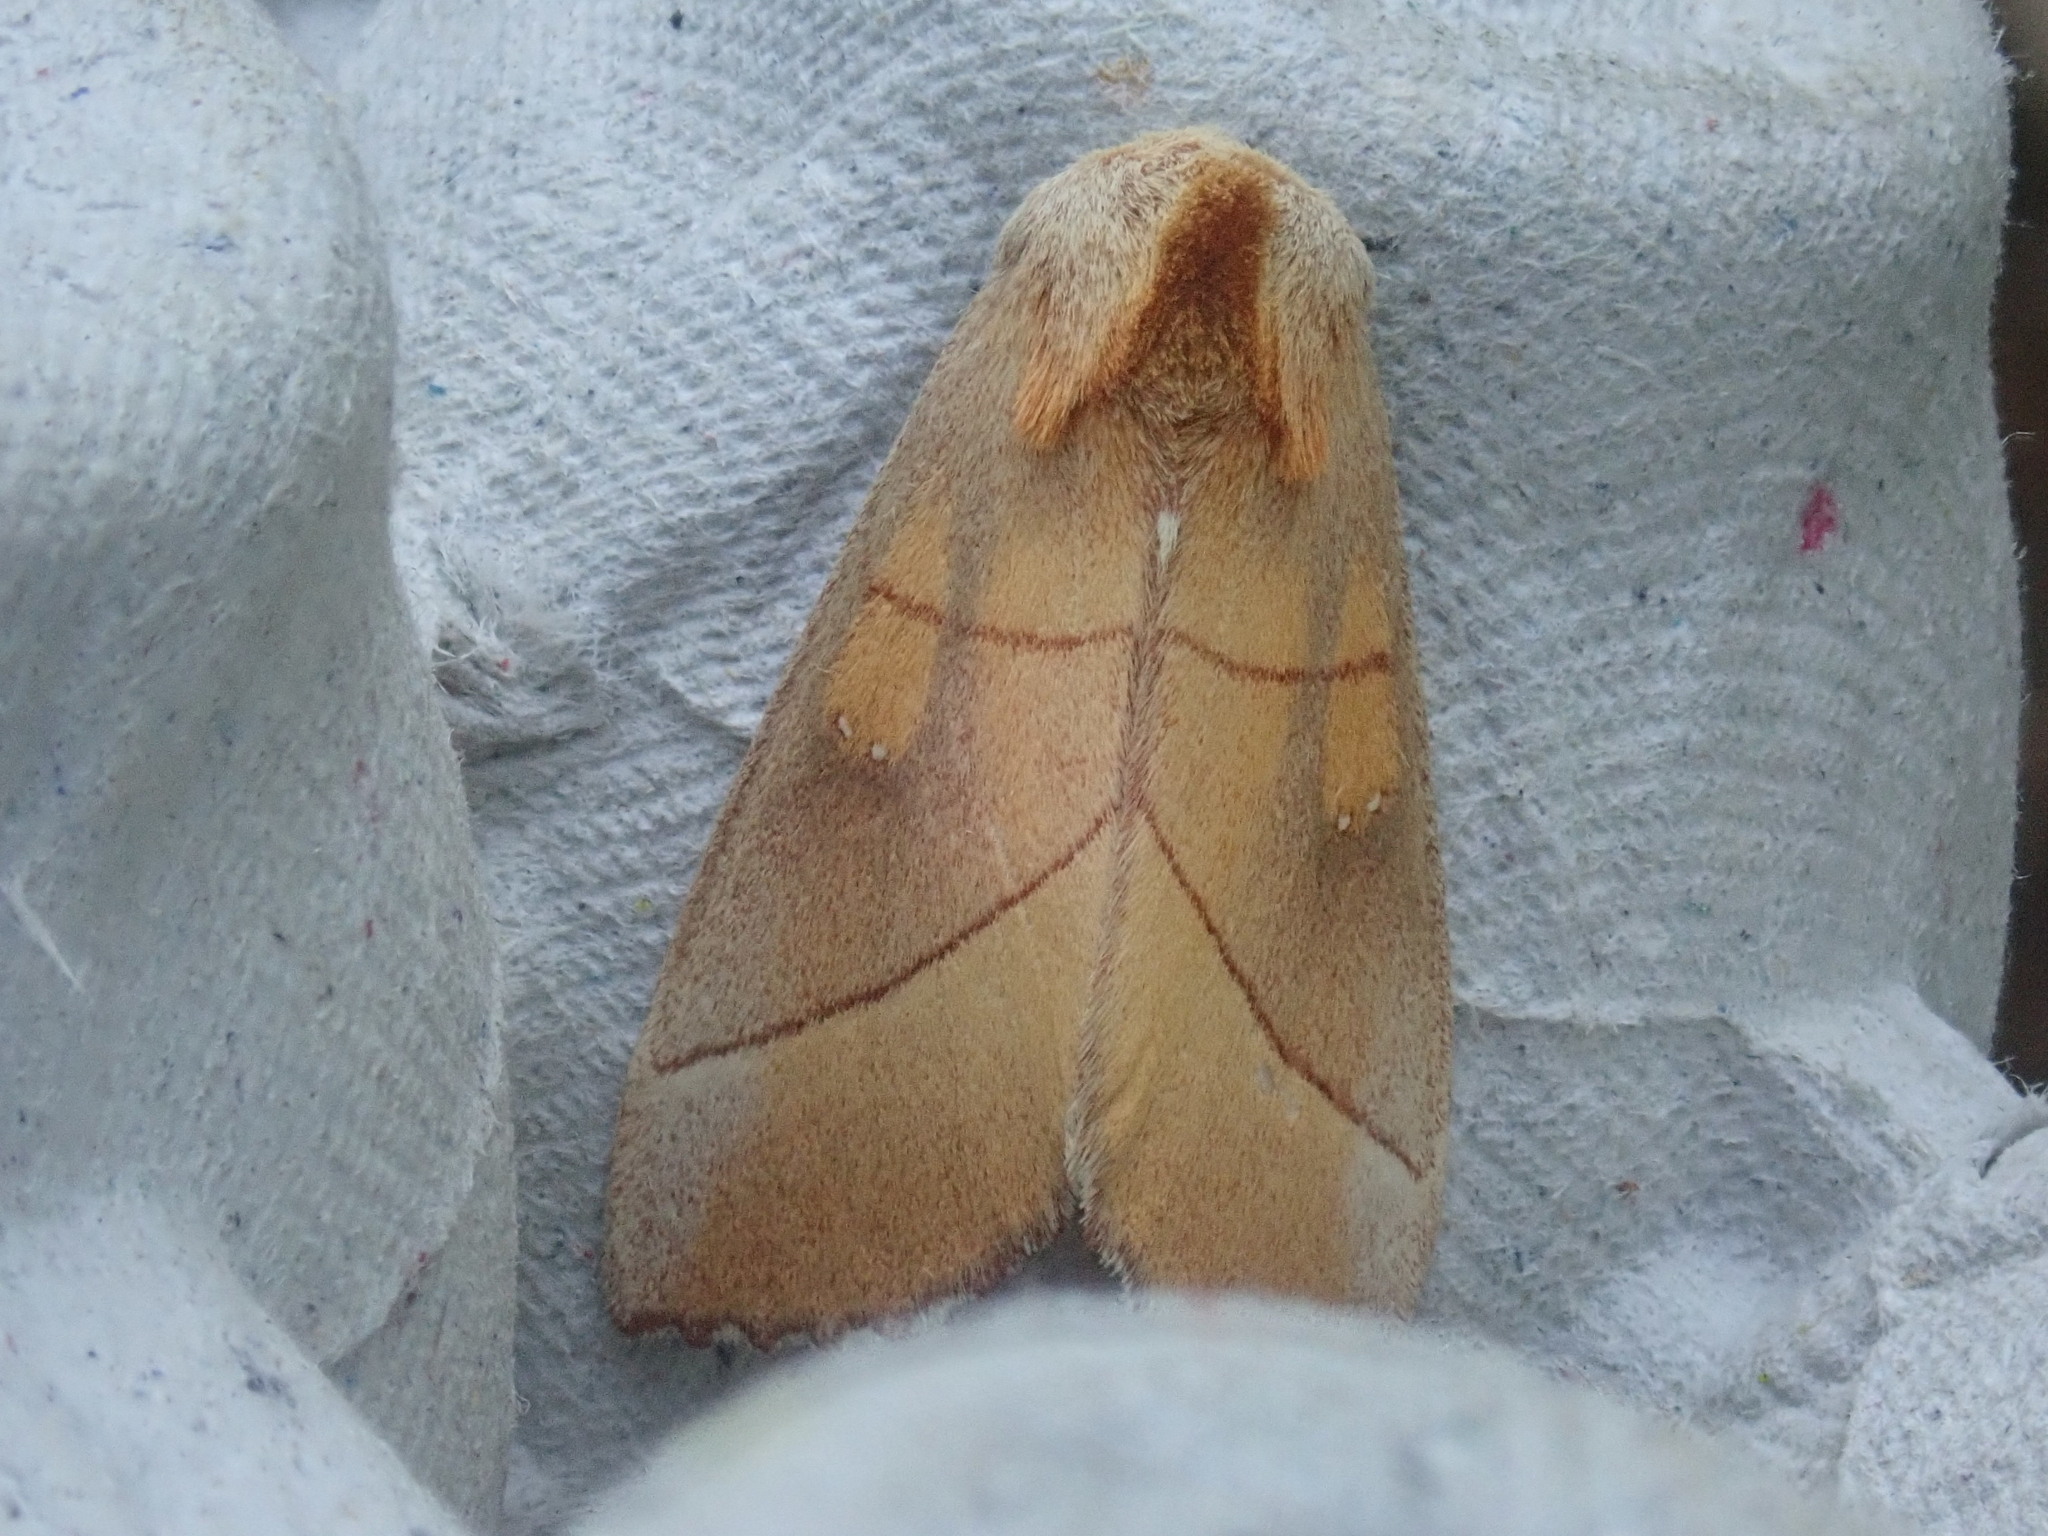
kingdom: Animalia
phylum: Arthropoda
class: Insecta
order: Lepidoptera
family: Notodontidae
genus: Nadata
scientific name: Nadata gibbosa
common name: White-dotted prominent
